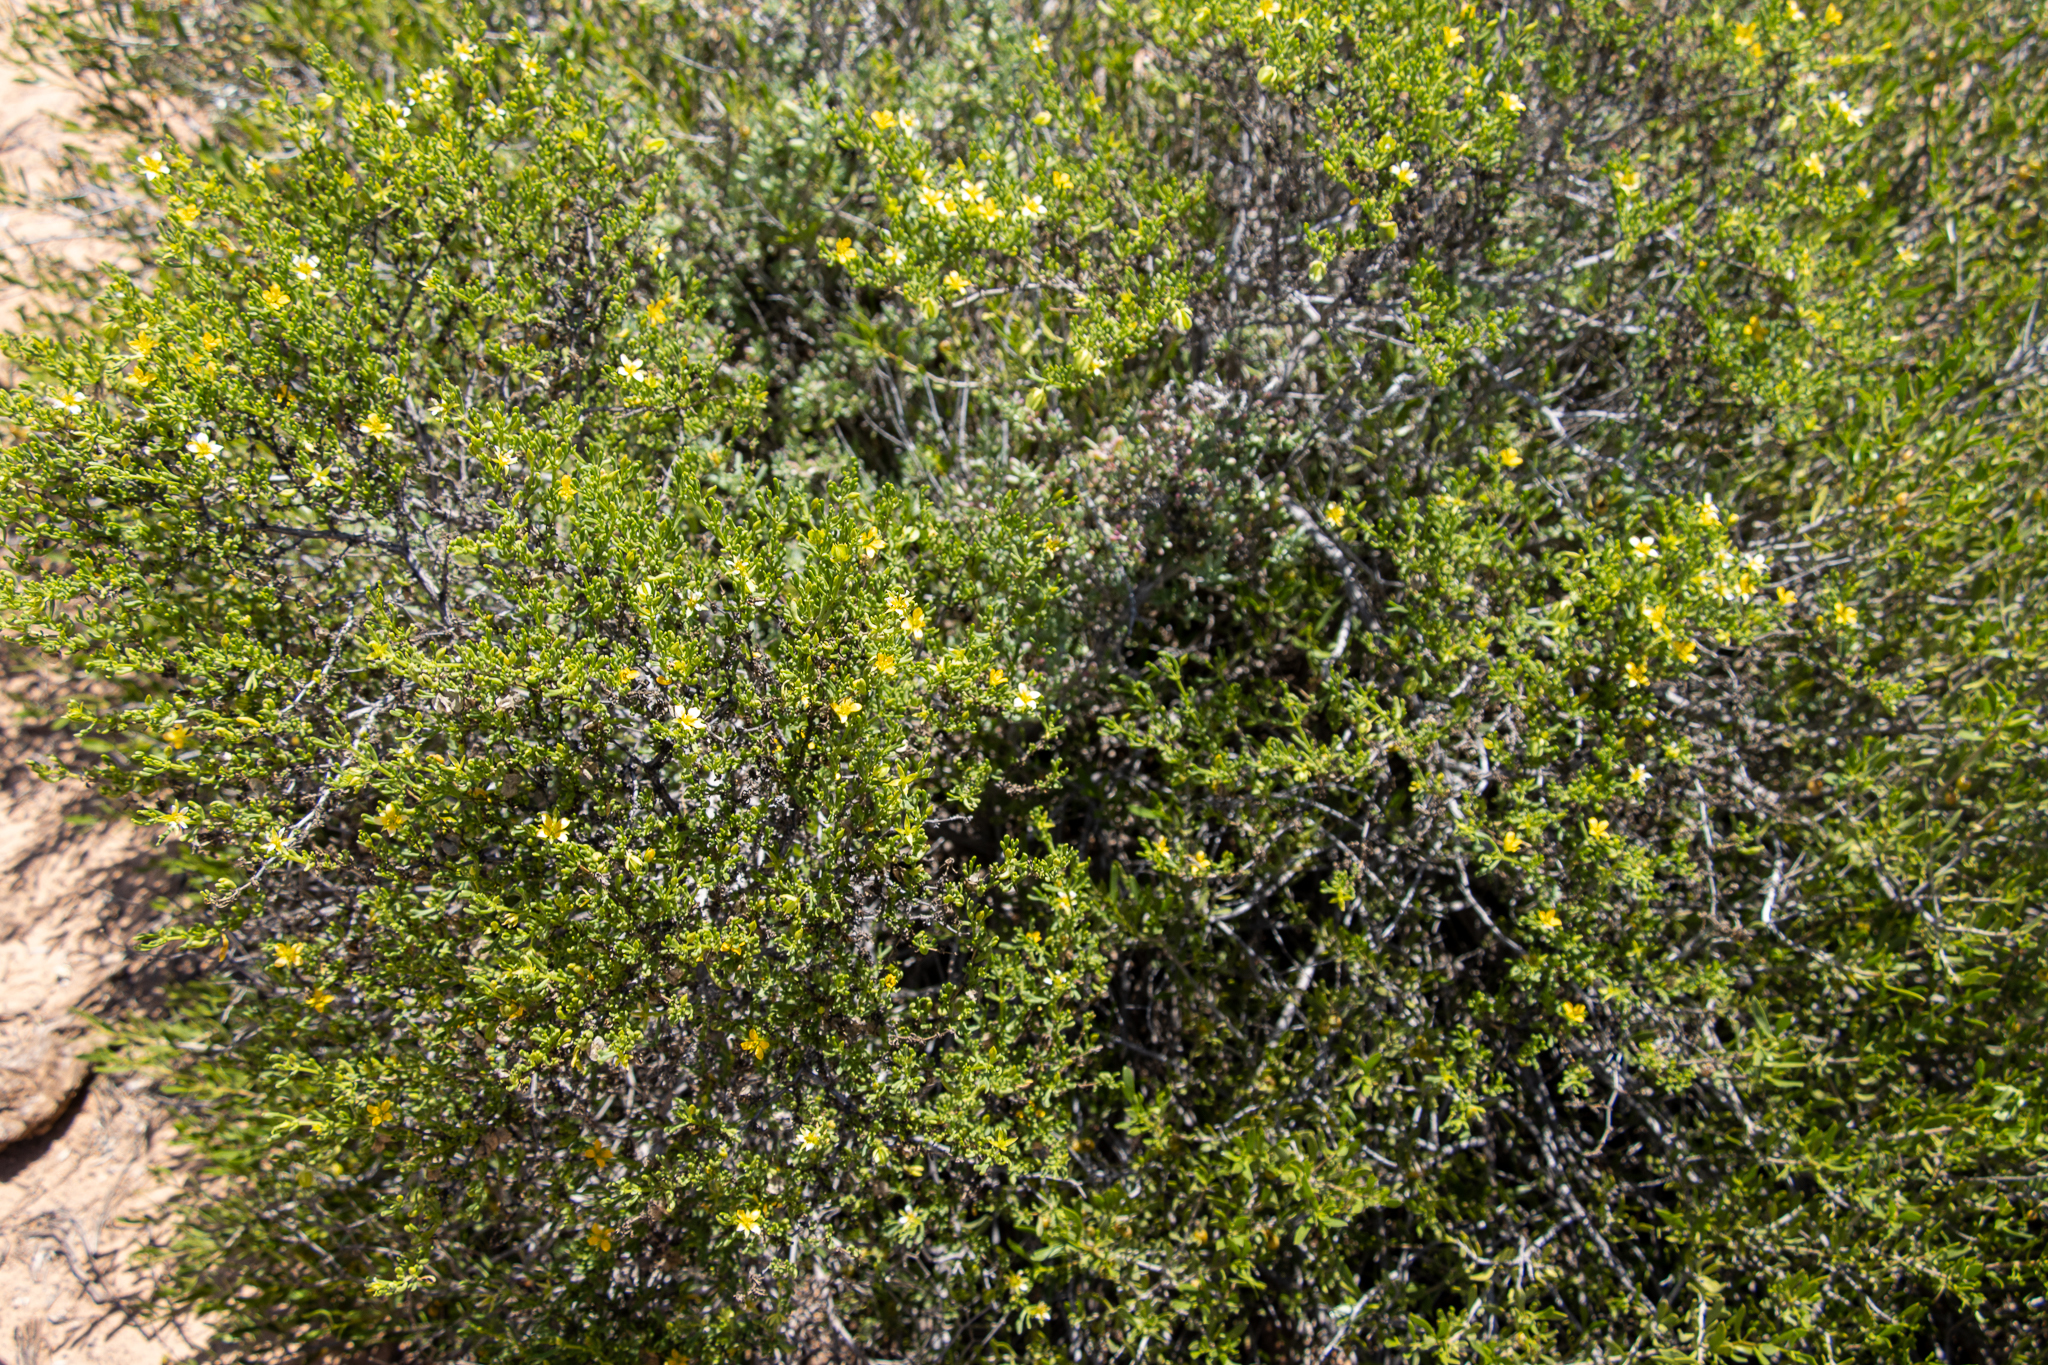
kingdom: Plantae
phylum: Tracheophyta
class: Magnoliopsida
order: Zygophyllales
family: Zygophyllaceae
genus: Roepera
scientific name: Roepera aurantiaca
